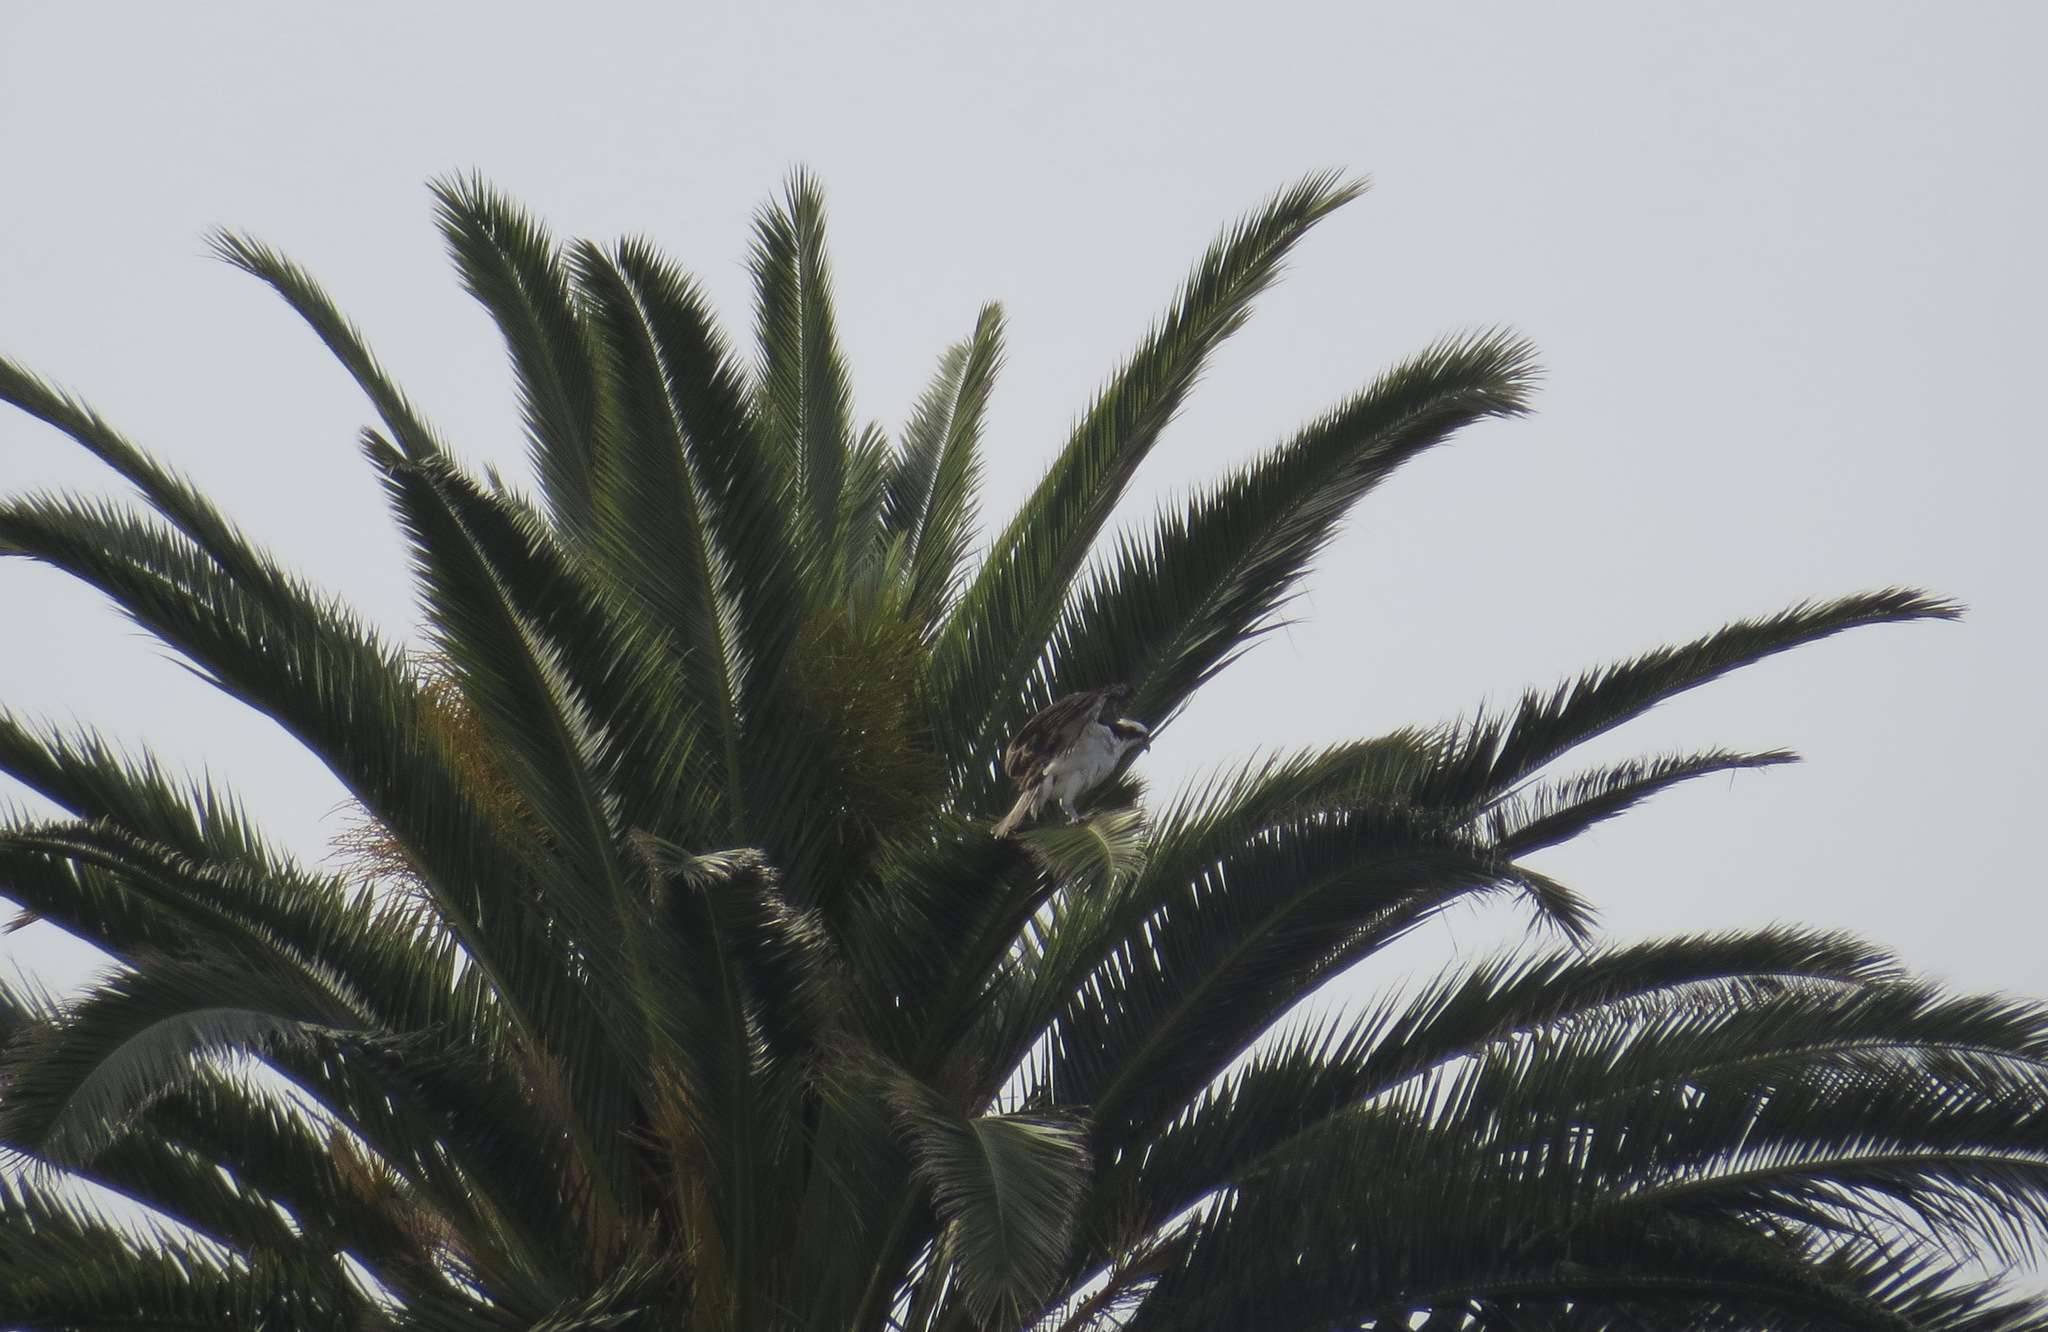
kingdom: Animalia
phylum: Chordata
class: Aves
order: Accipitriformes
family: Pandionidae
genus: Pandion
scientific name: Pandion haliaetus
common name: Osprey
